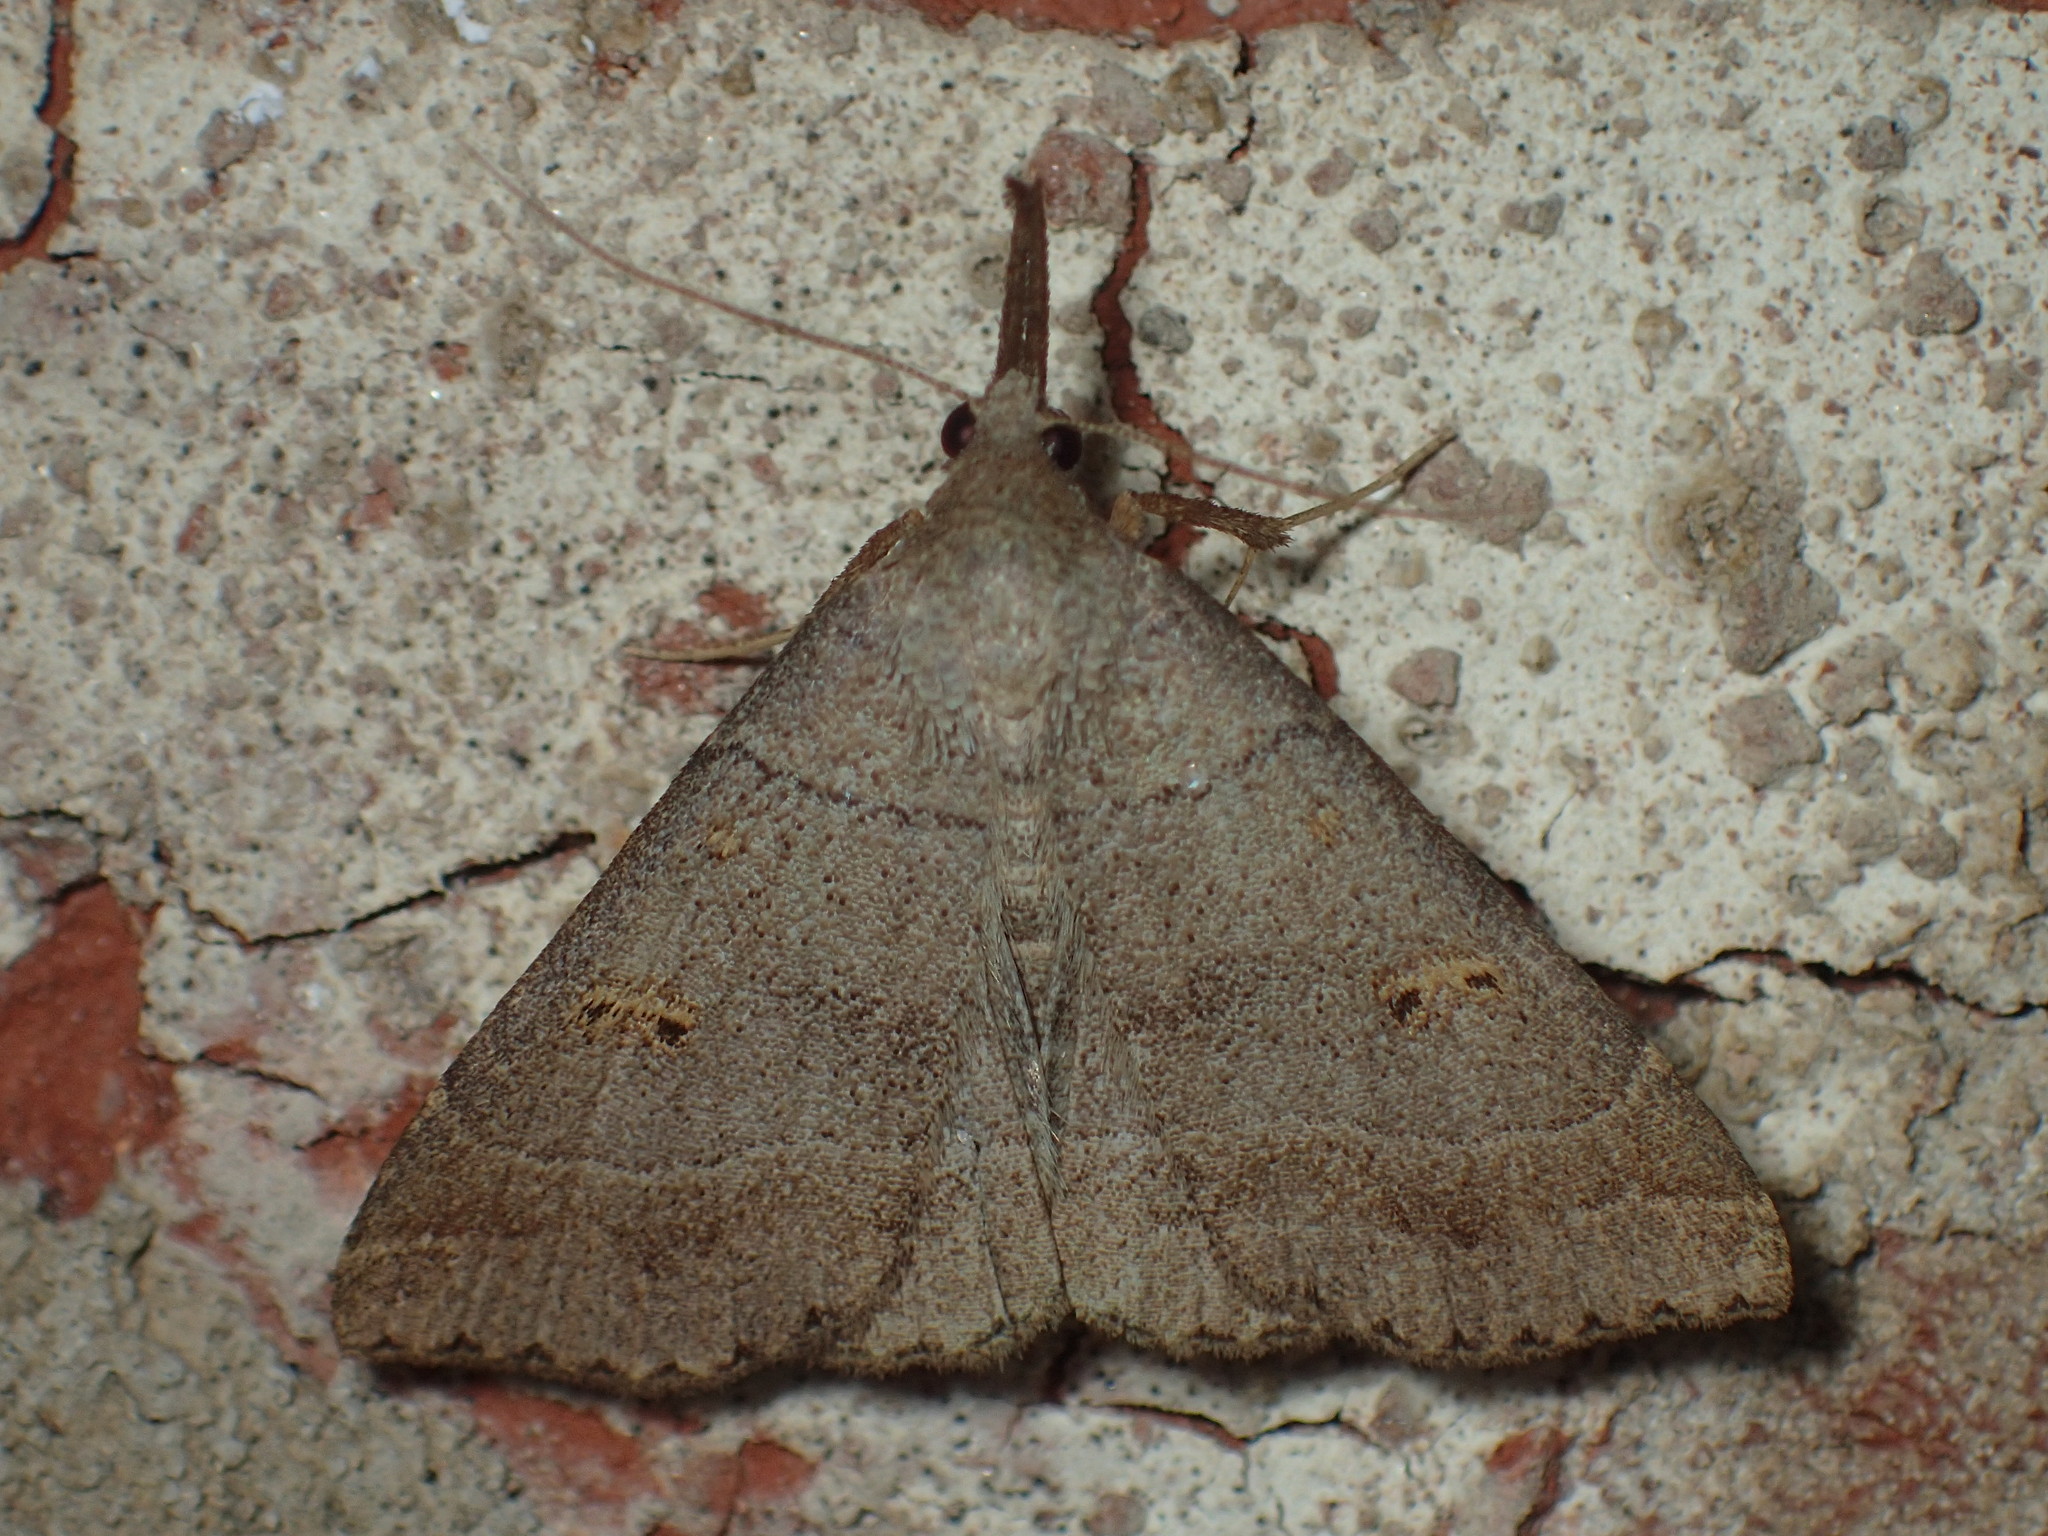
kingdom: Animalia
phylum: Arthropoda
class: Insecta
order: Lepidoptera
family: Erebidae
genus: Renia
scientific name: Renia flavipunctalis
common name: Yellow-spotted renia moth
